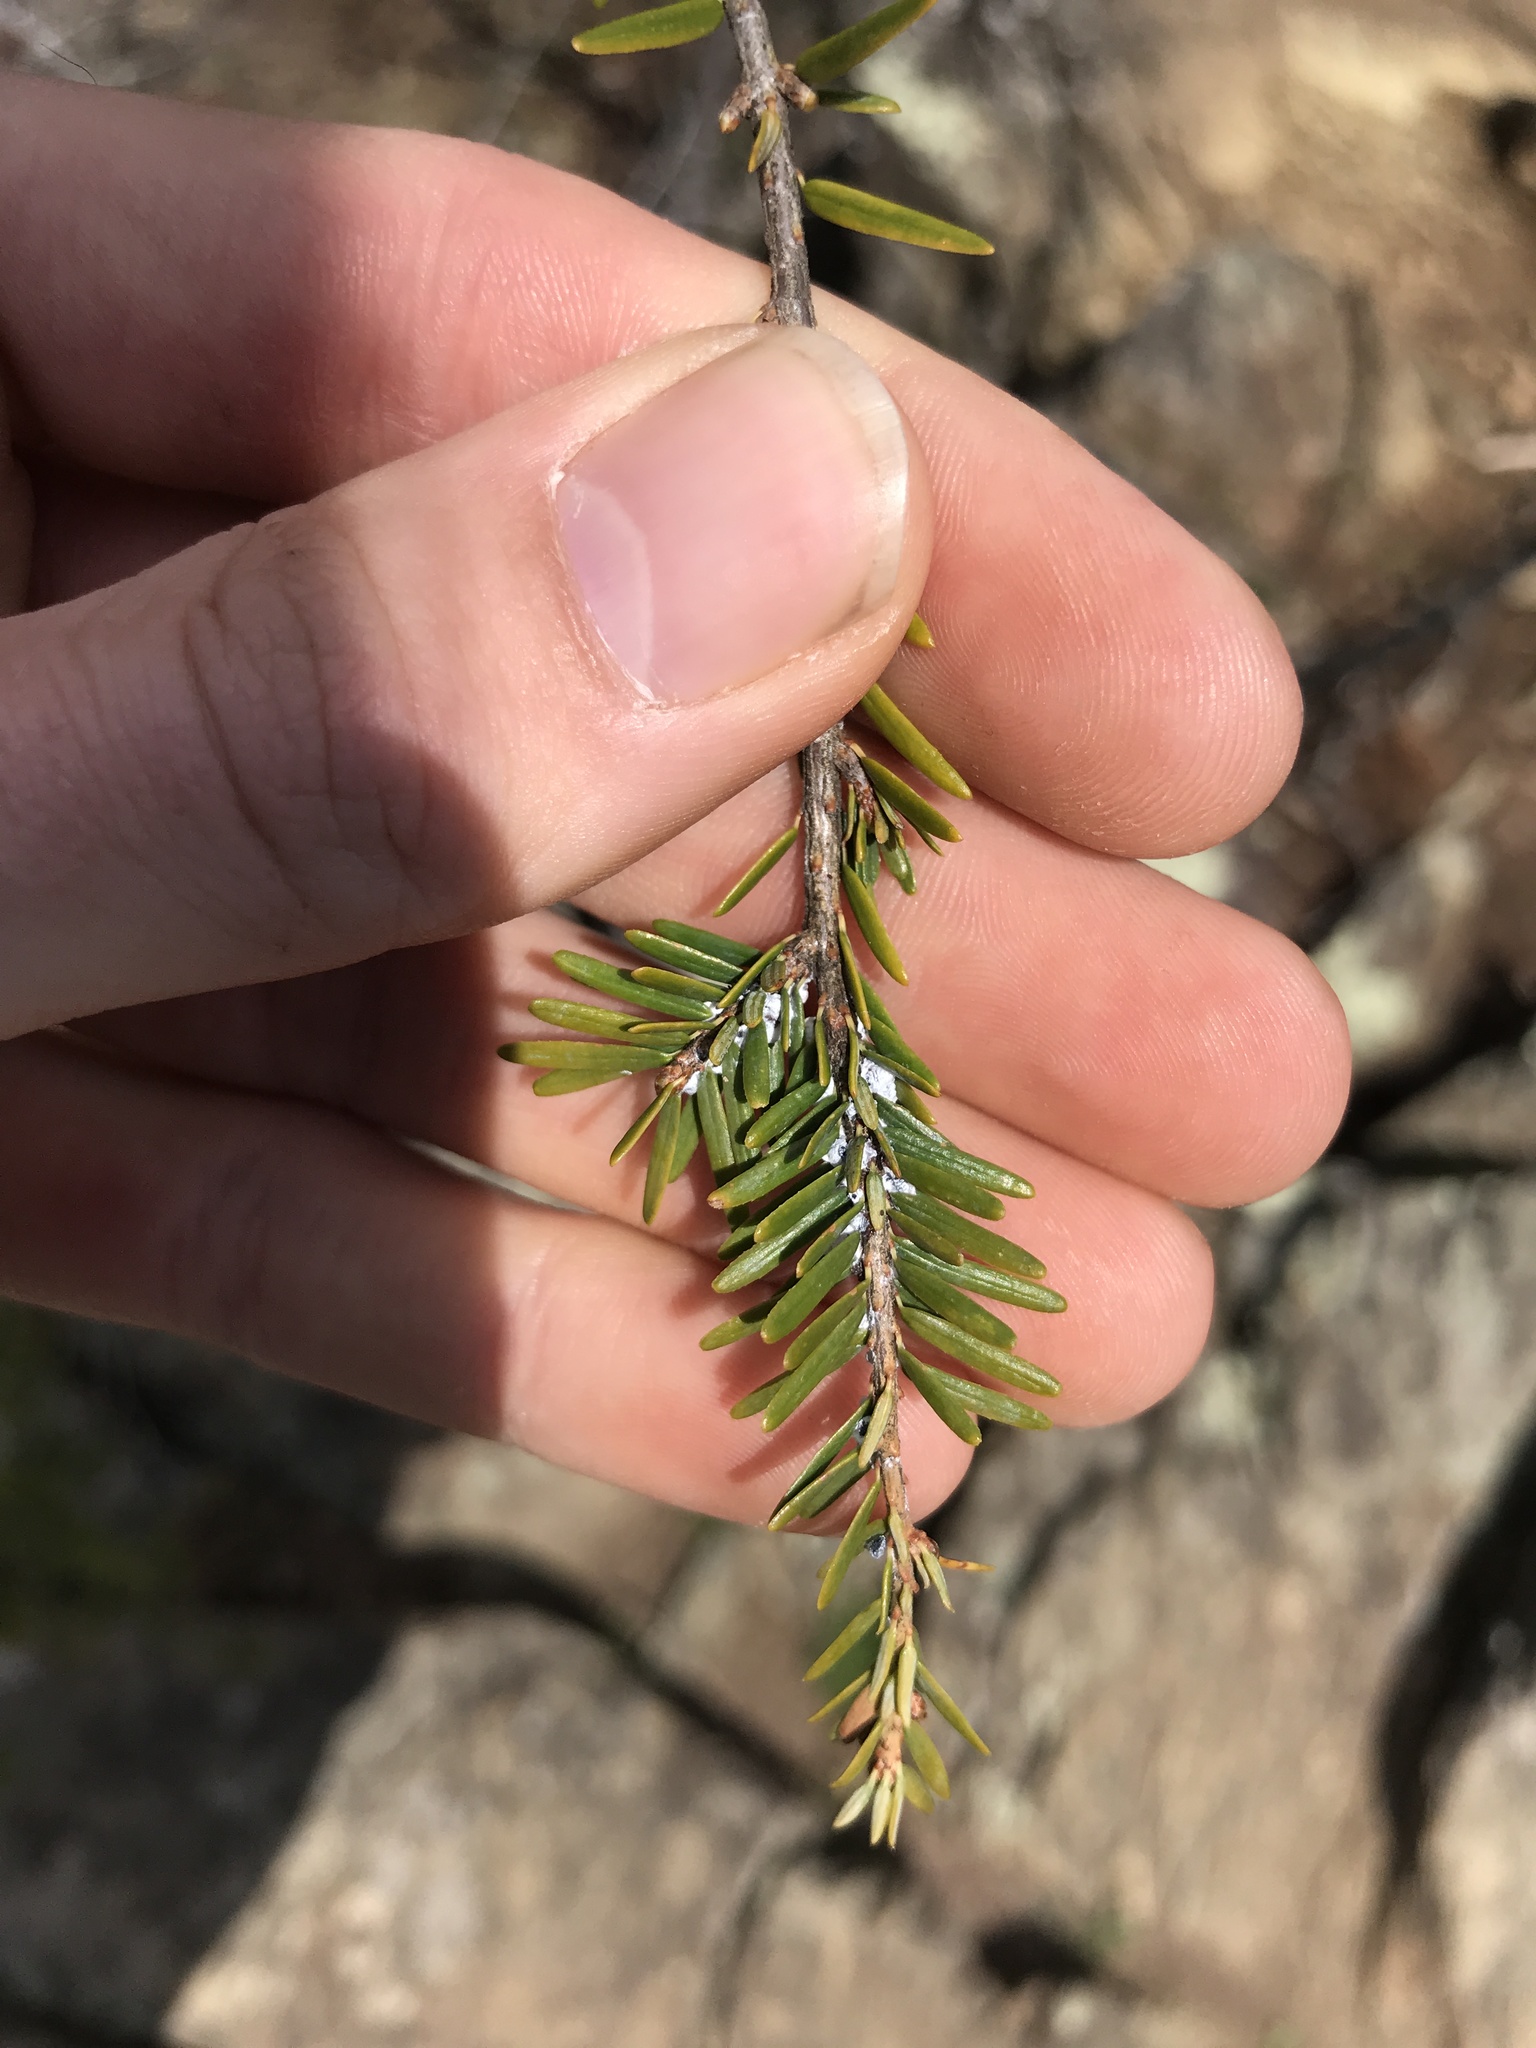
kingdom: Animalia
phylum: Arthropoda
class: Insecta
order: Hemiptera
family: Adelgidae
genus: Adelges
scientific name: Adelges tsugae
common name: Hemlock woolly adelgid
